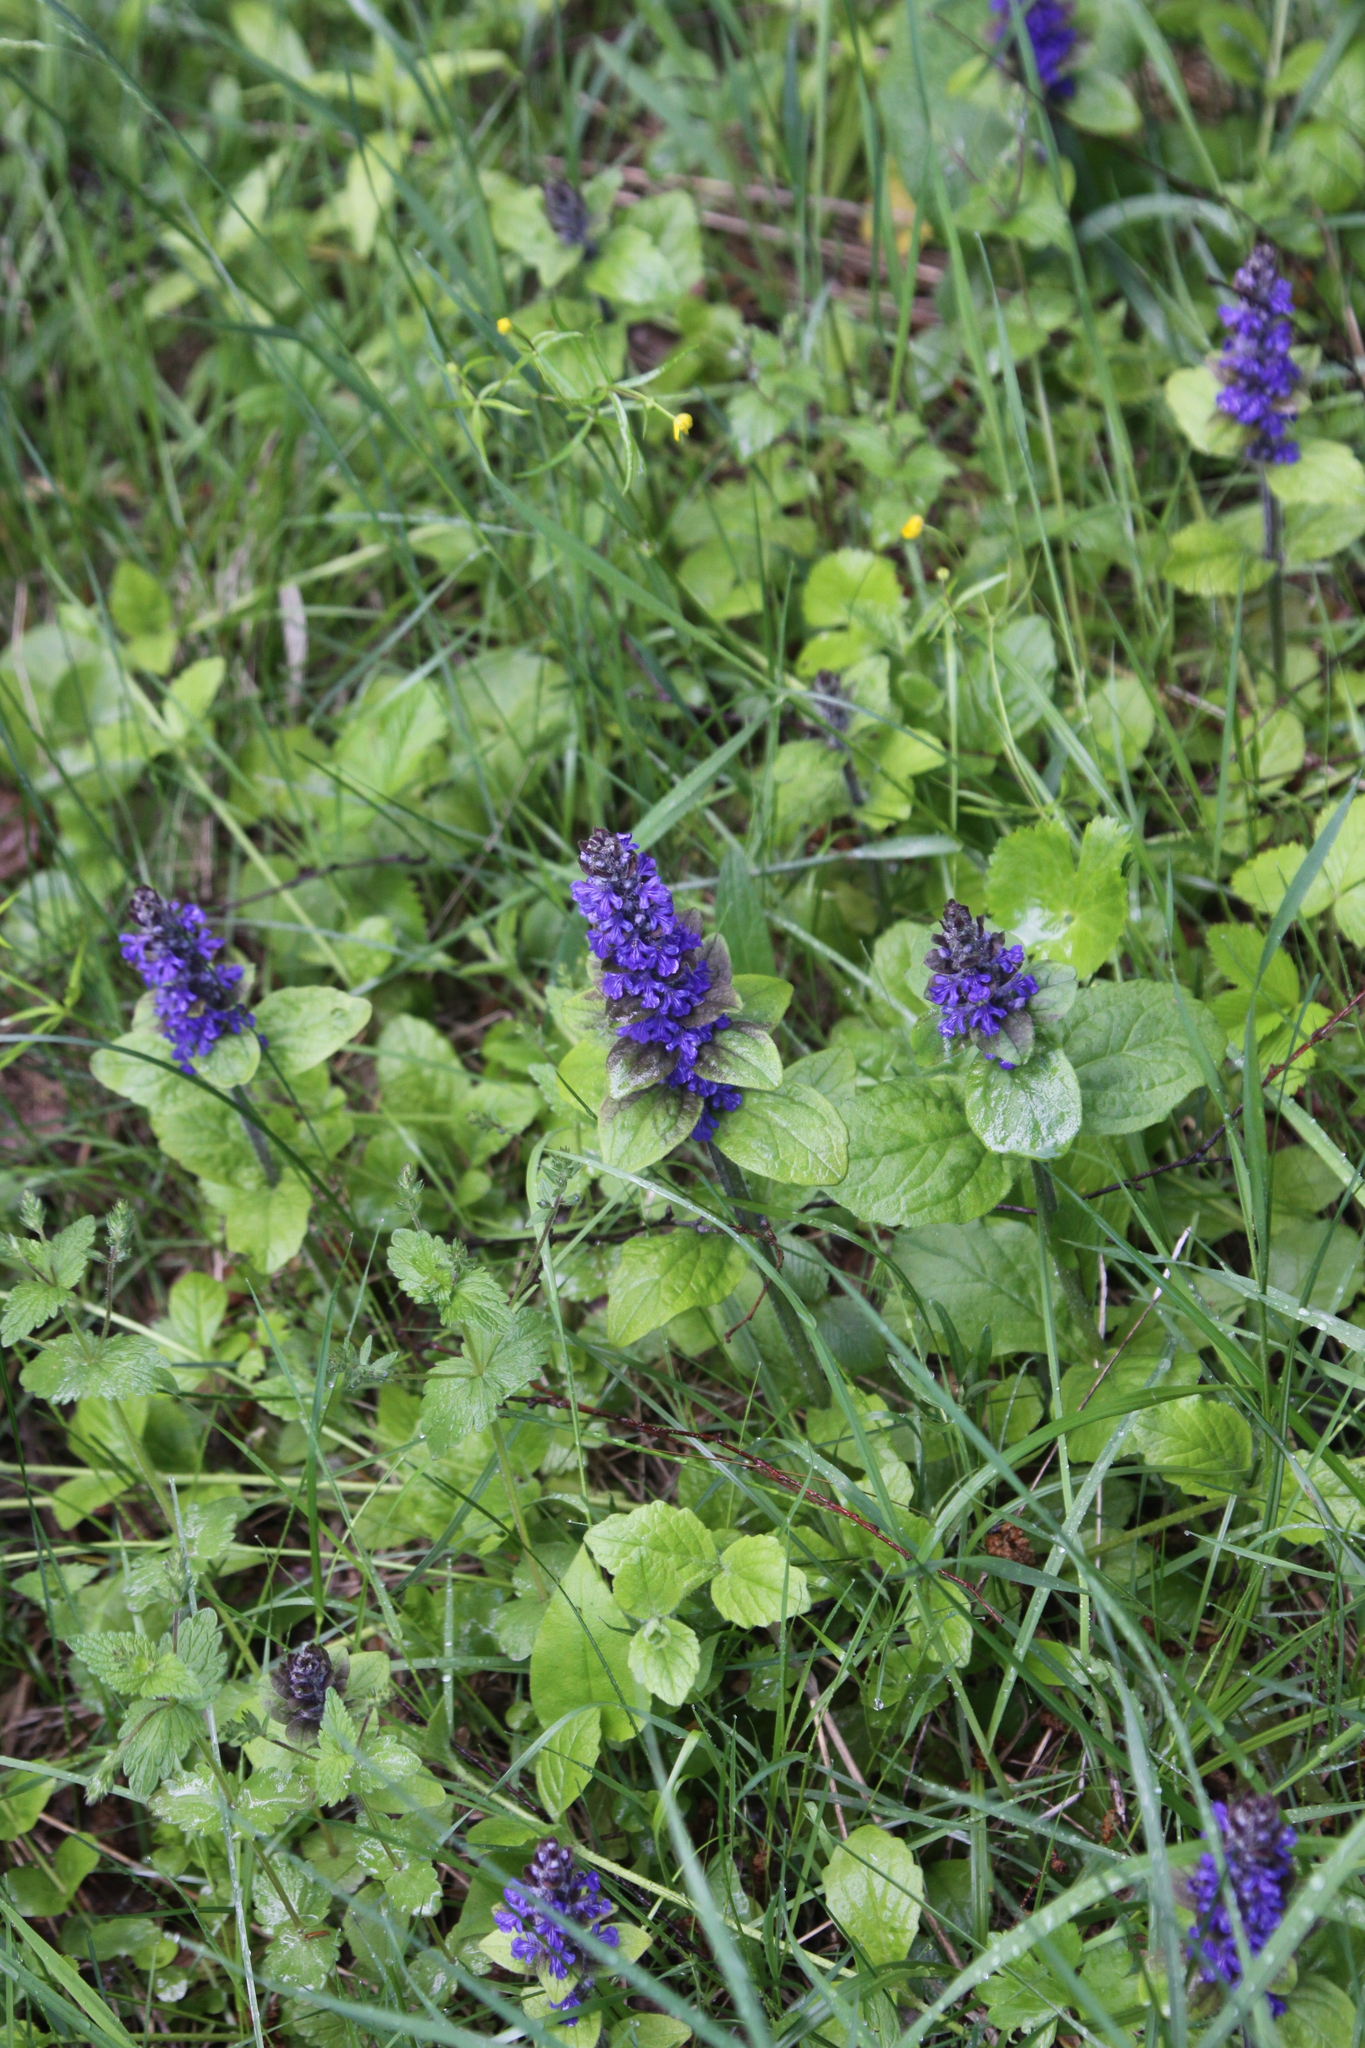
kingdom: Plantae
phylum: Tracheophyta
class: Magnoliopsida
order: Lamiales
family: Lamiaceae
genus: Ajuga
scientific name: Ajuga reptans
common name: Bugle
